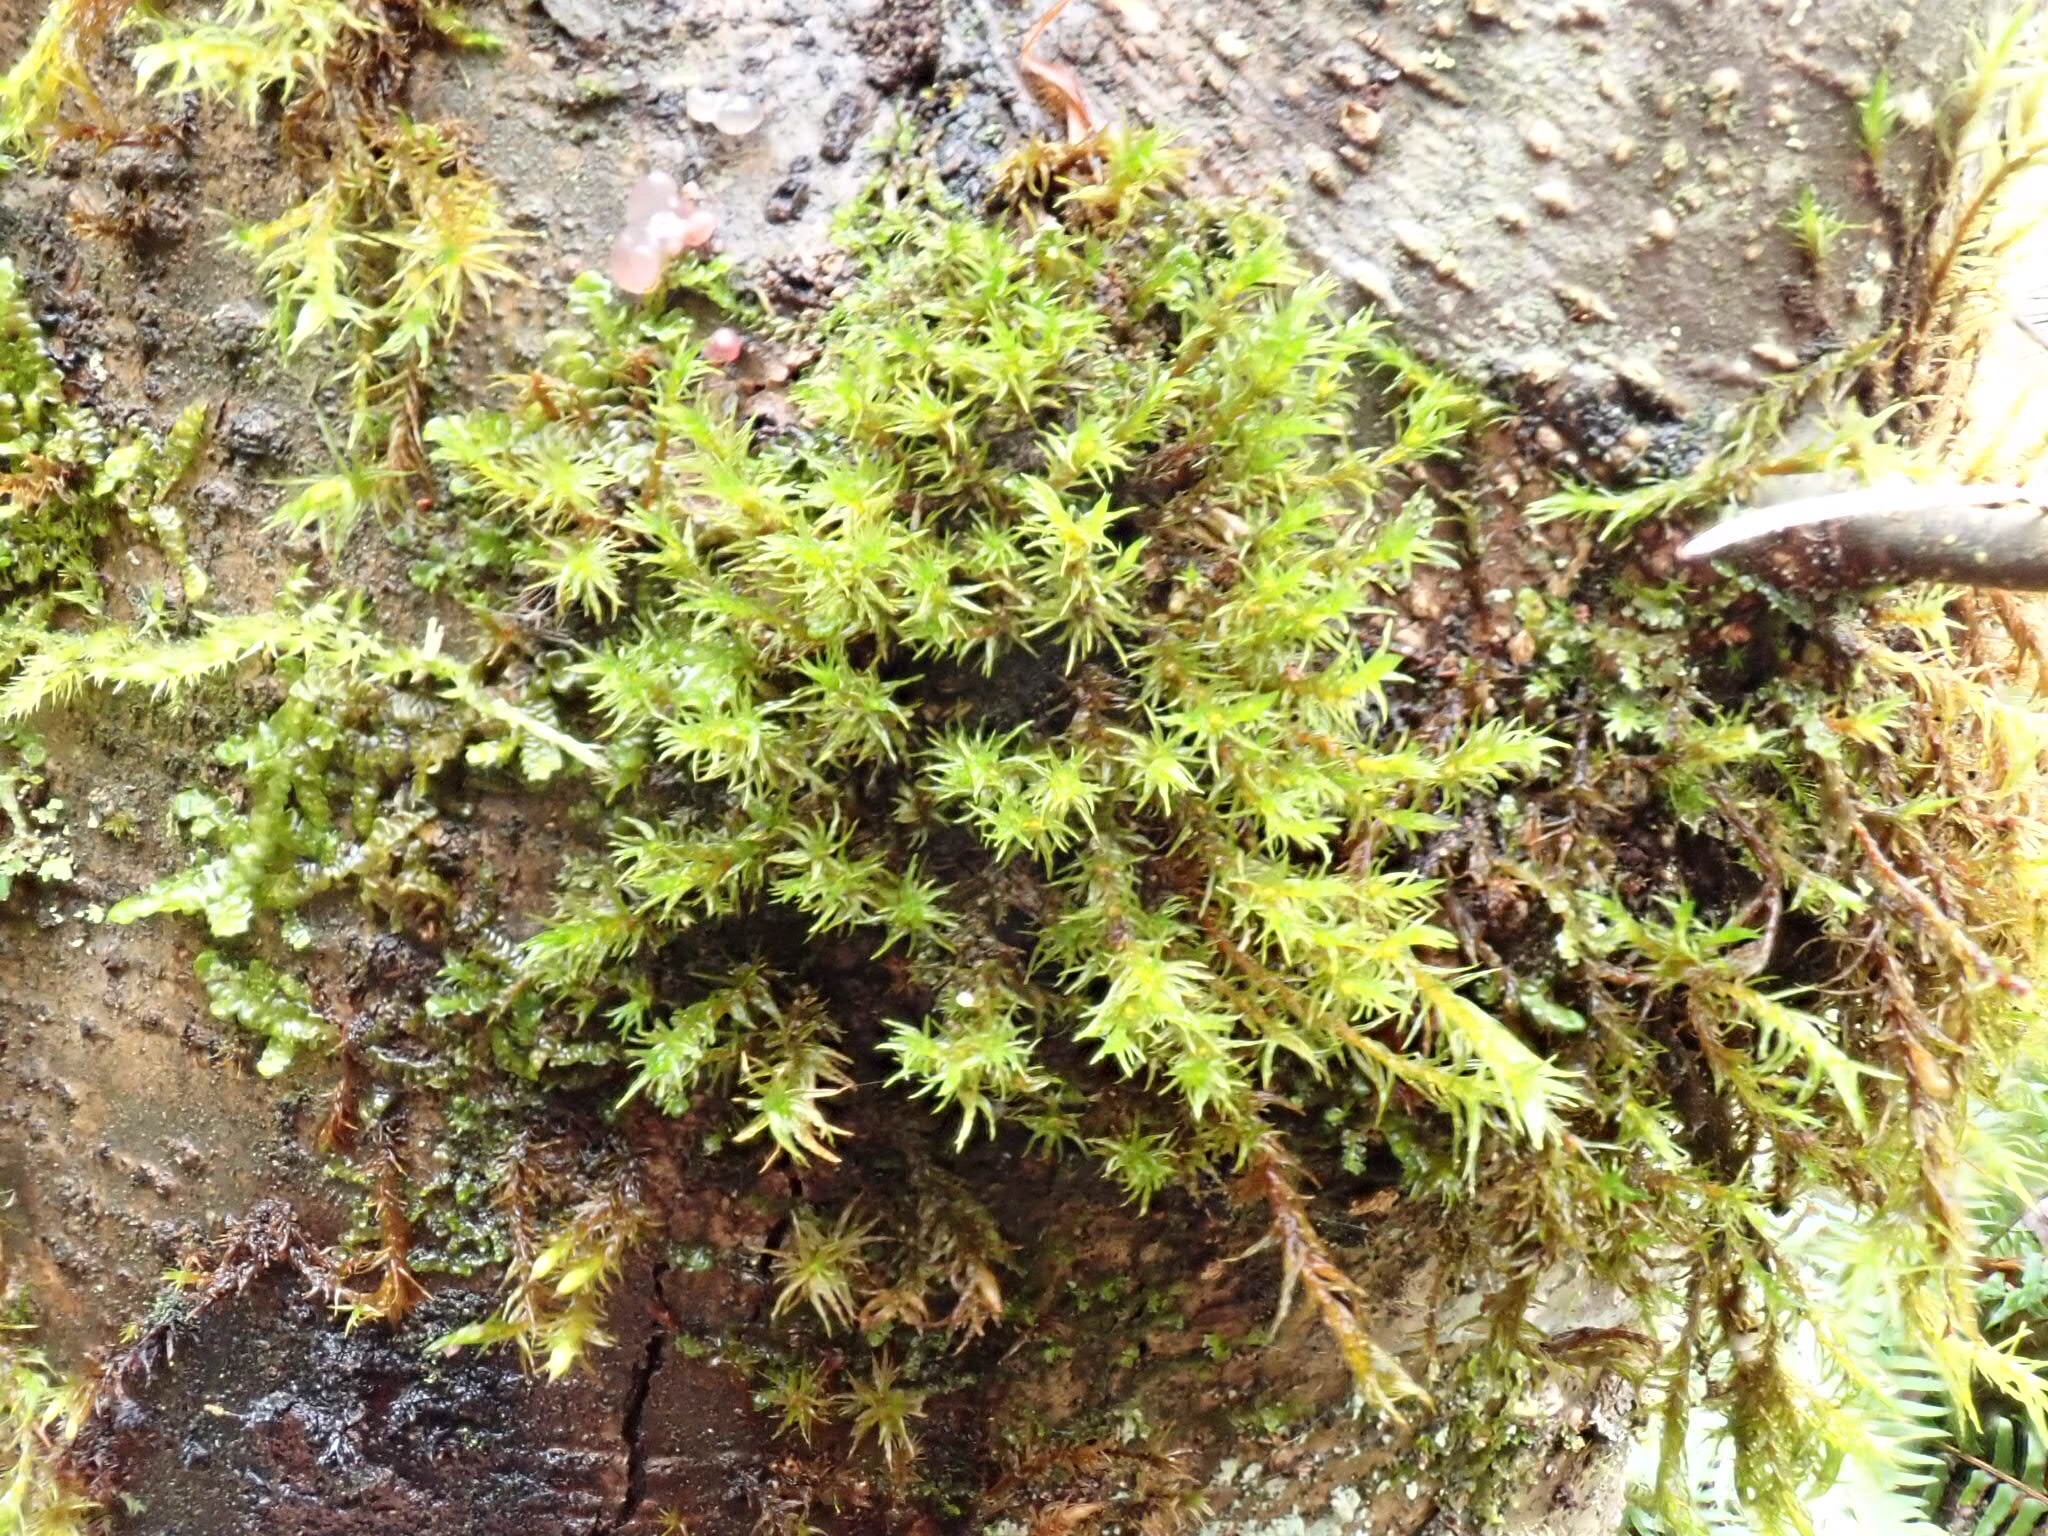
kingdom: Plantae
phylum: Bryophyta
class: Bryopsida
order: Orthotrichales
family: Orthotrichaceae
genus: Pulvigera
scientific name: Pulvigera lyellii
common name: Lyell's bristle-moss
